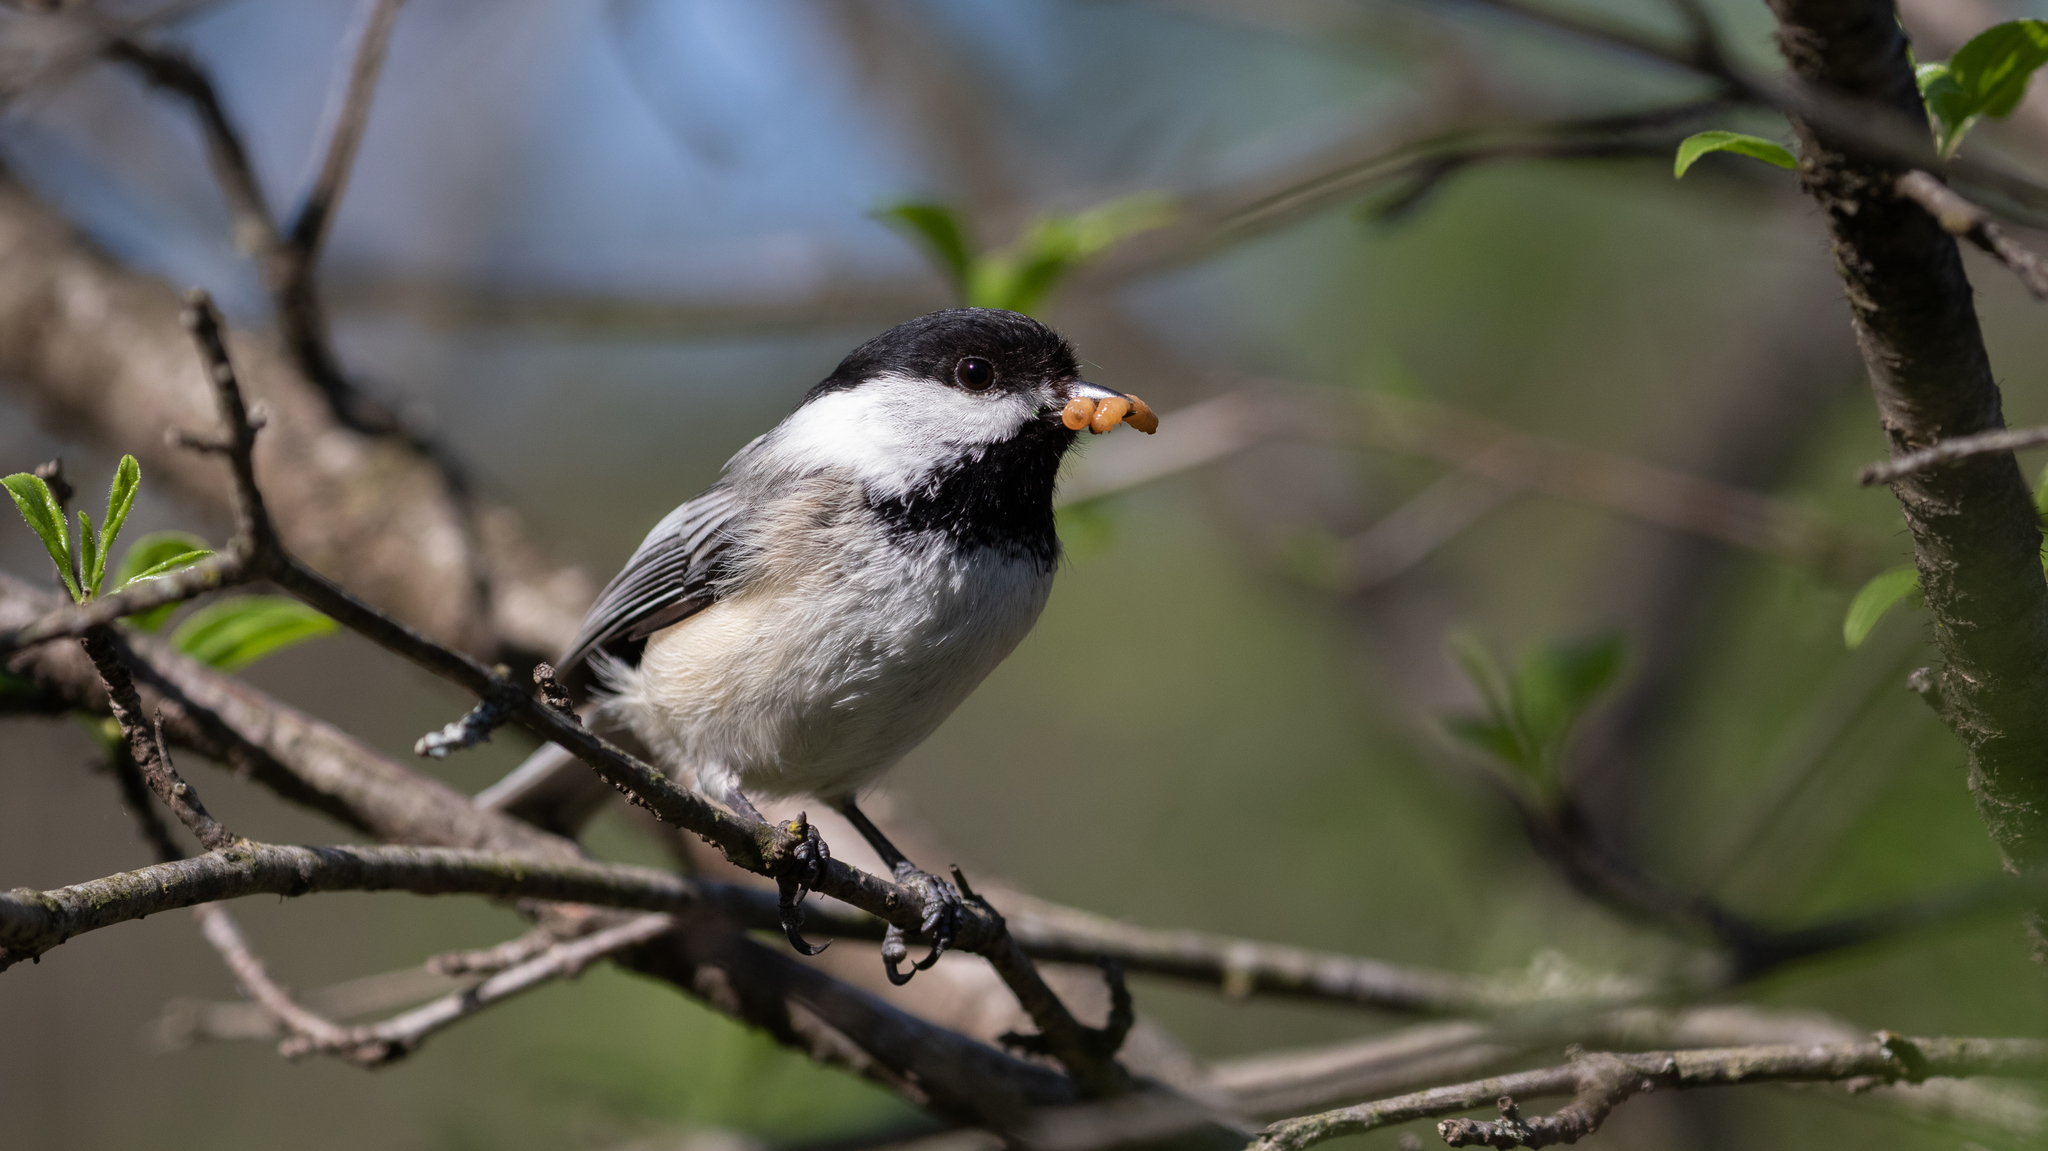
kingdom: Animalia
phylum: Chordata
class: Aves
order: Passeriformes
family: Paridae
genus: Poecile
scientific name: Poecile atricapillus
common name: Black-capped chickadee
